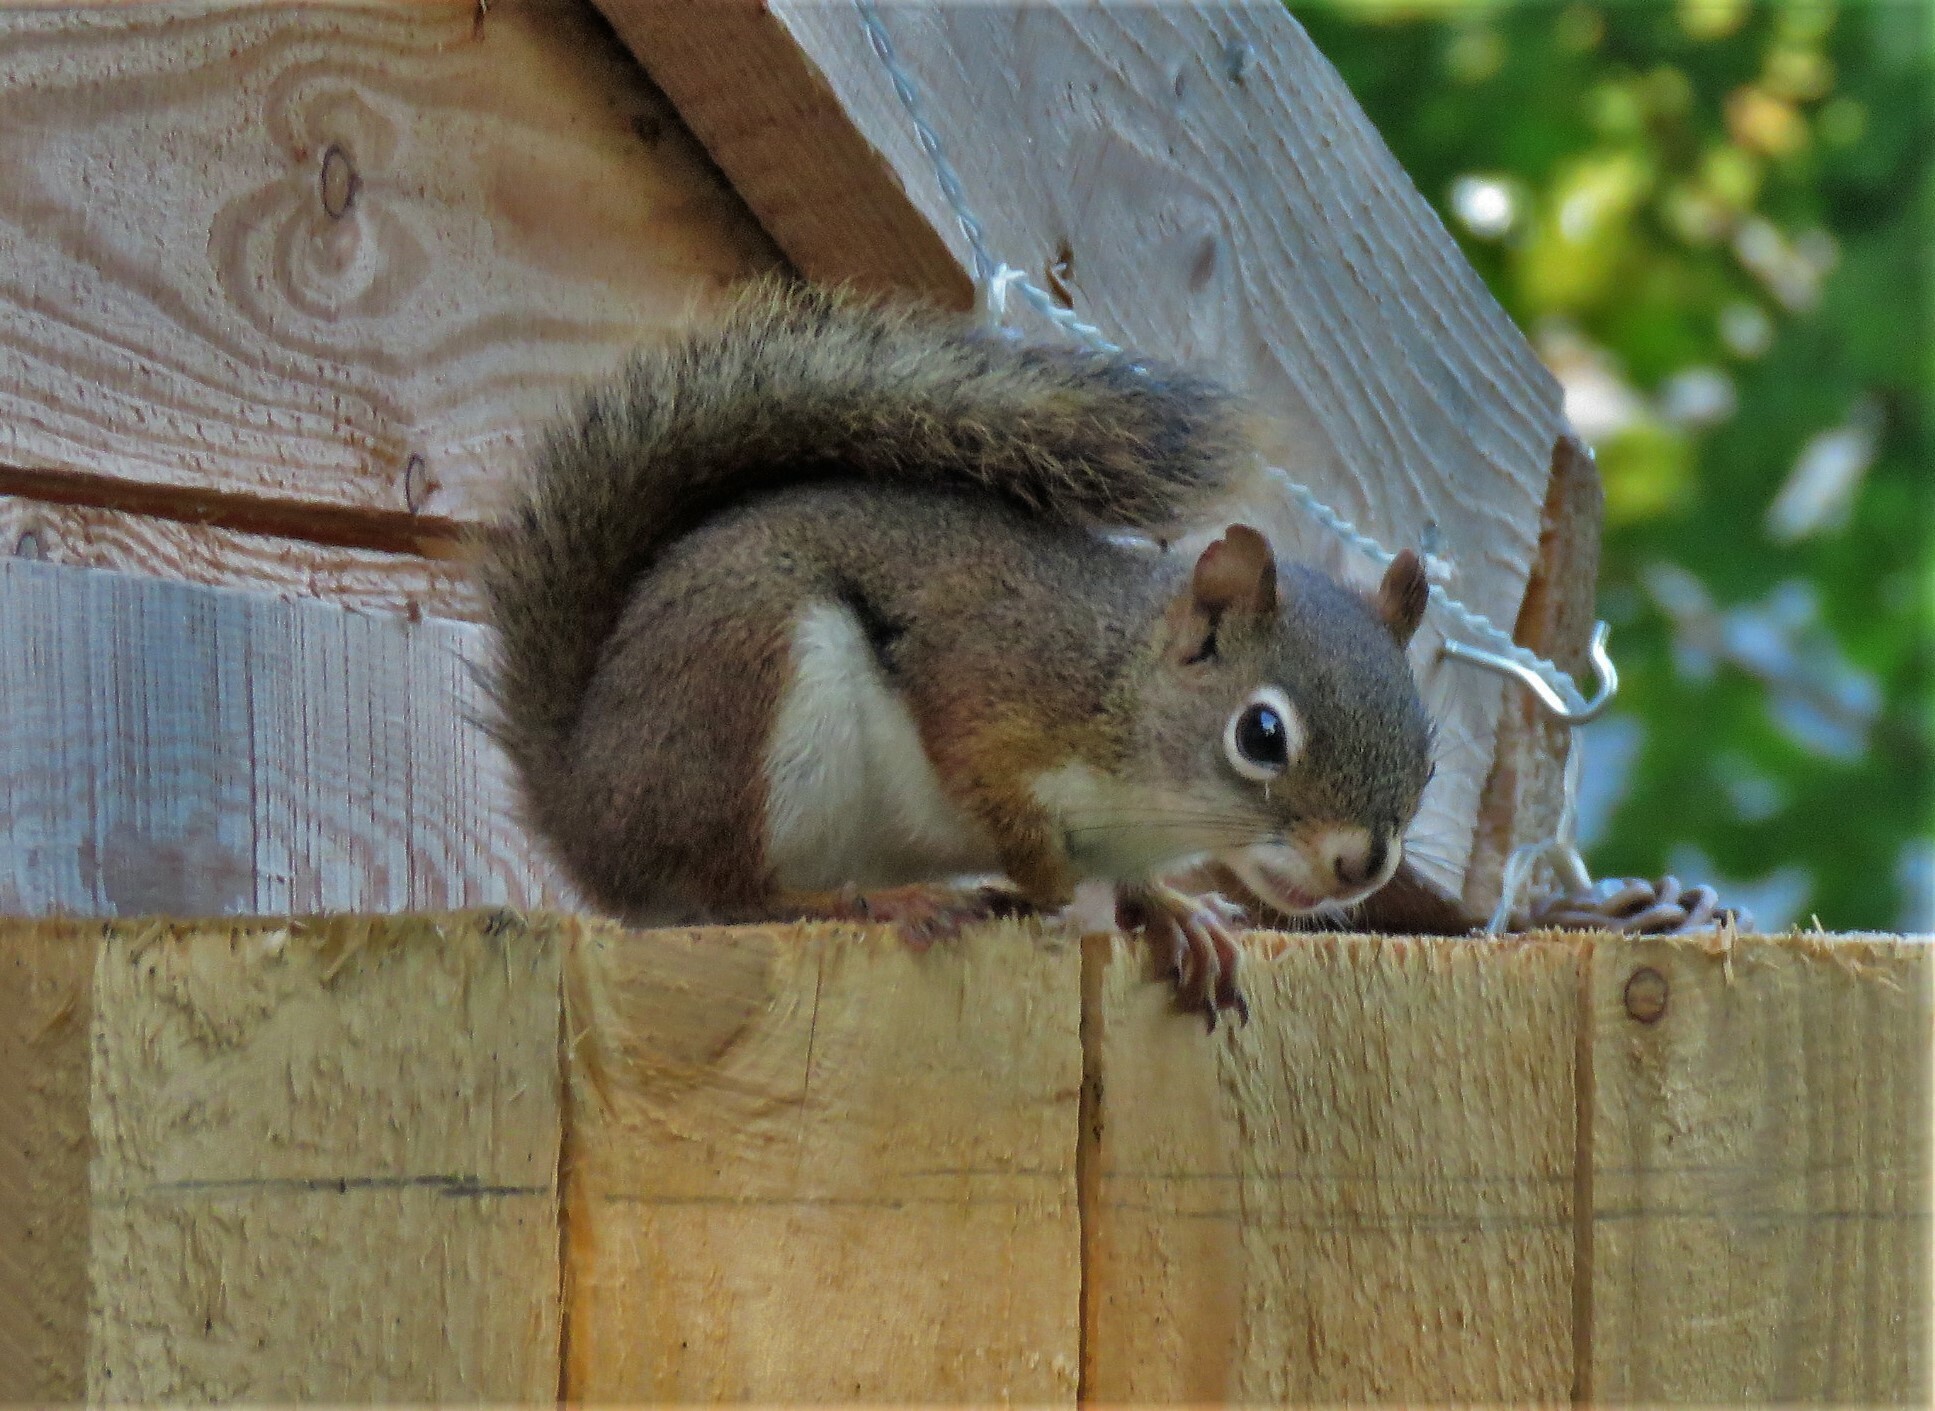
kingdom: Animalia
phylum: Chordata
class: Mammalia
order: Rodentia
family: Sciuridae
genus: Tamiasciurus
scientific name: Tamiasciurus hudsonicus
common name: Red squirrel
